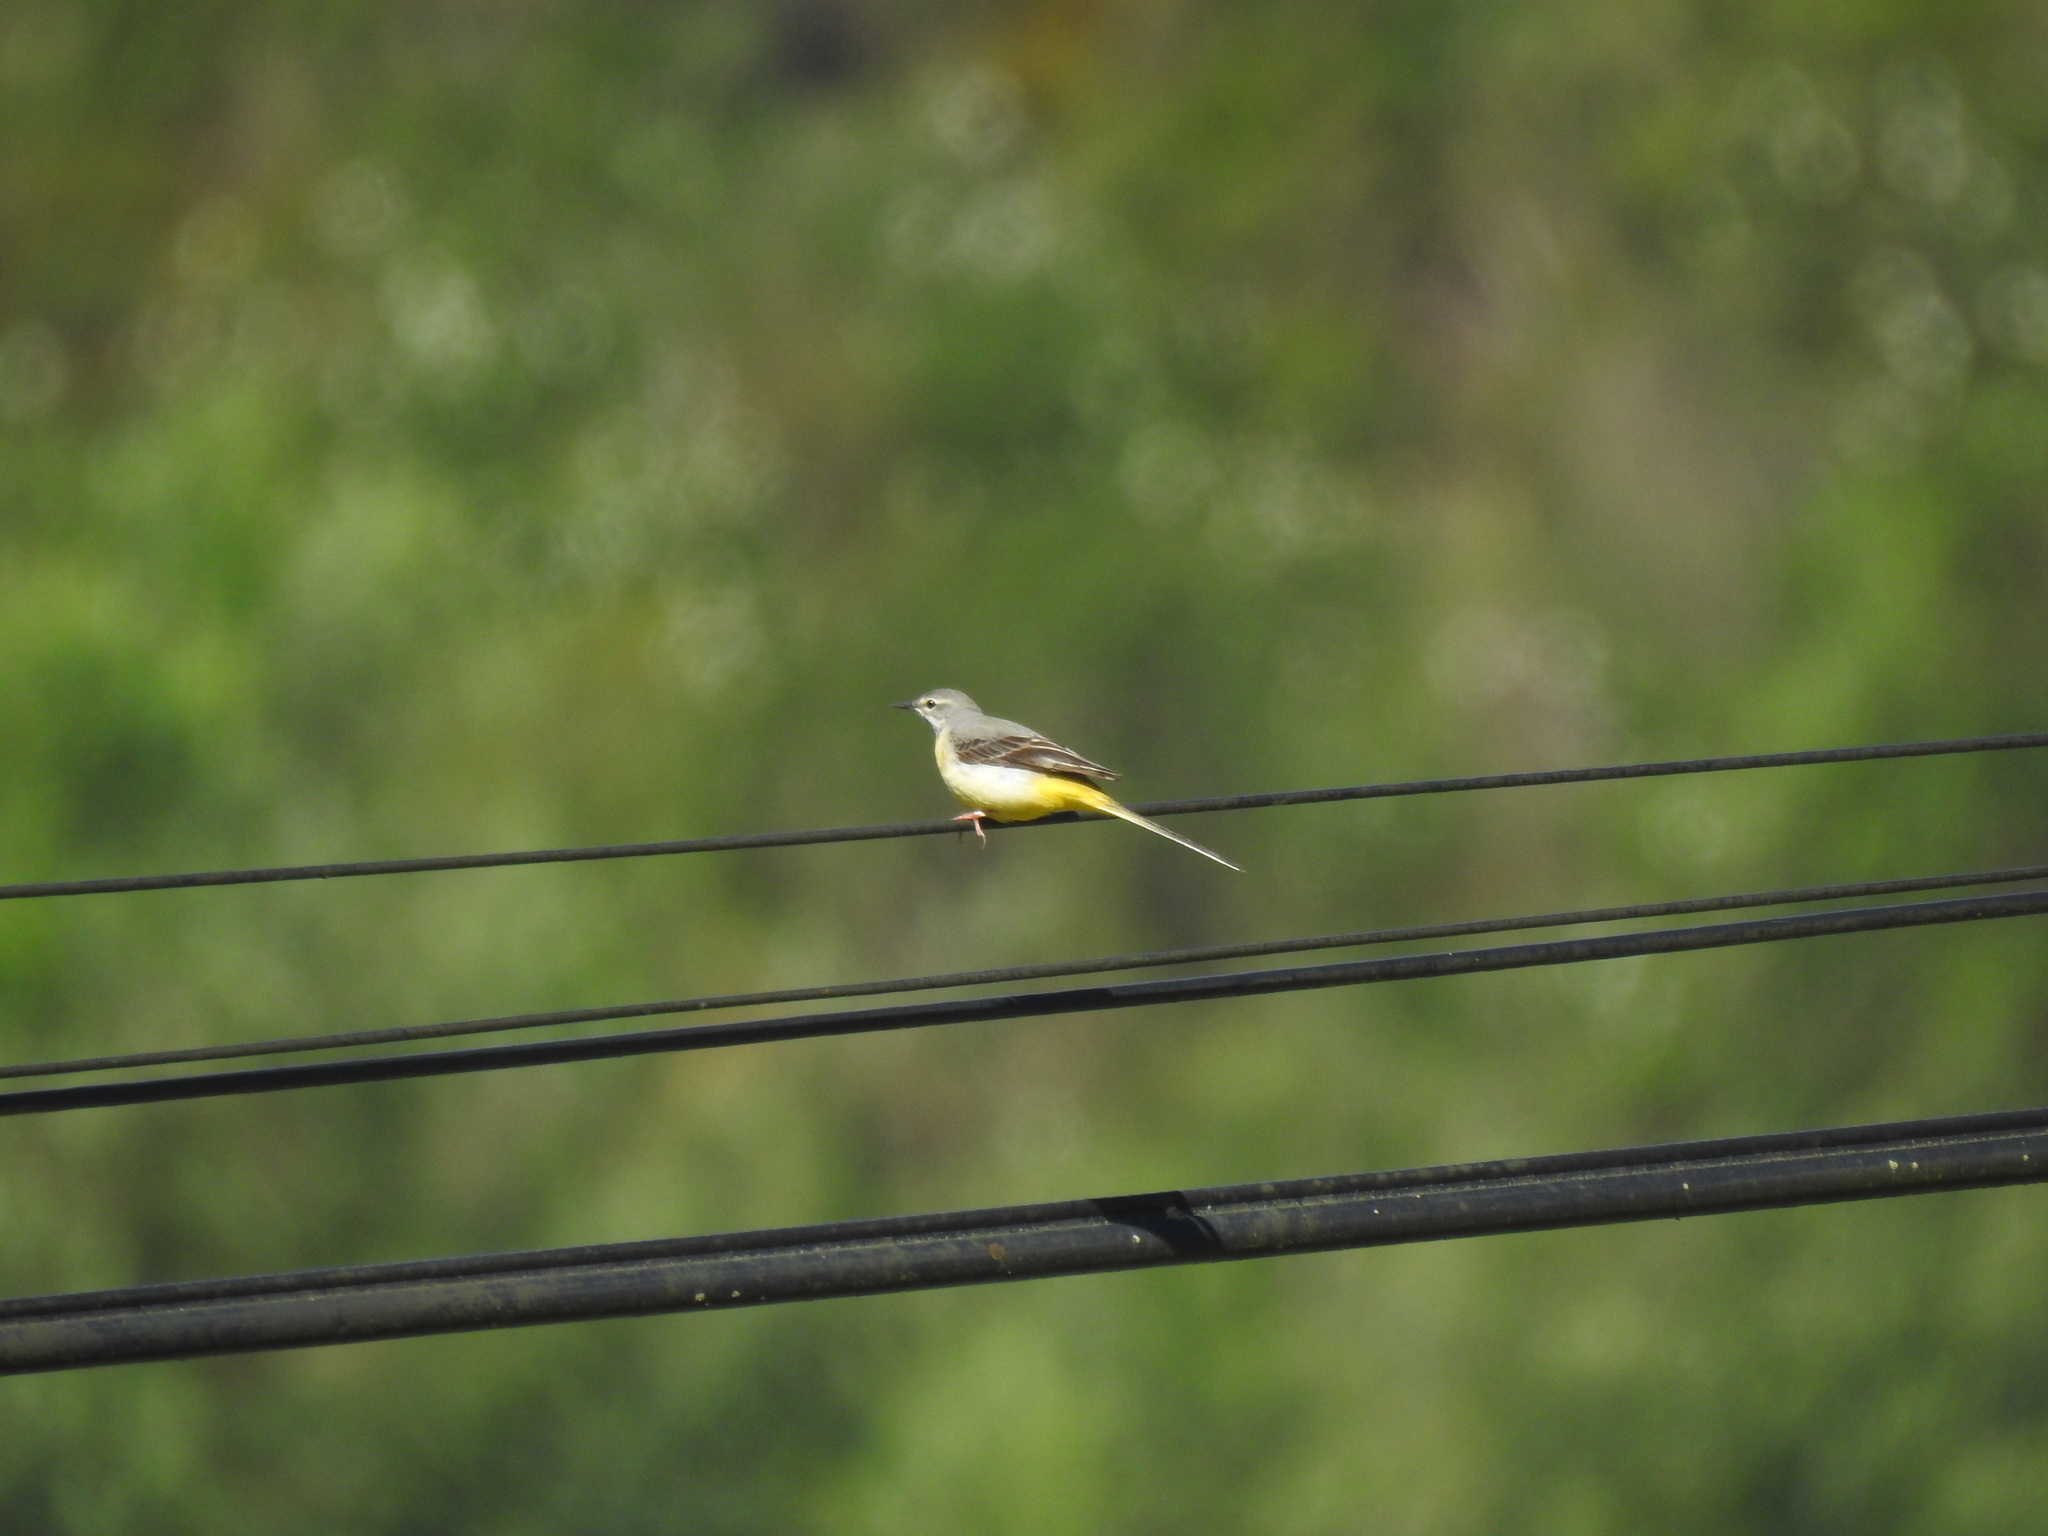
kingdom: Animalia
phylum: Chordata
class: Aves
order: Passeriformes
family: Motacillidae
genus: Motacilla
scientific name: Motacilla cinerea
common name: Grey wagtail
